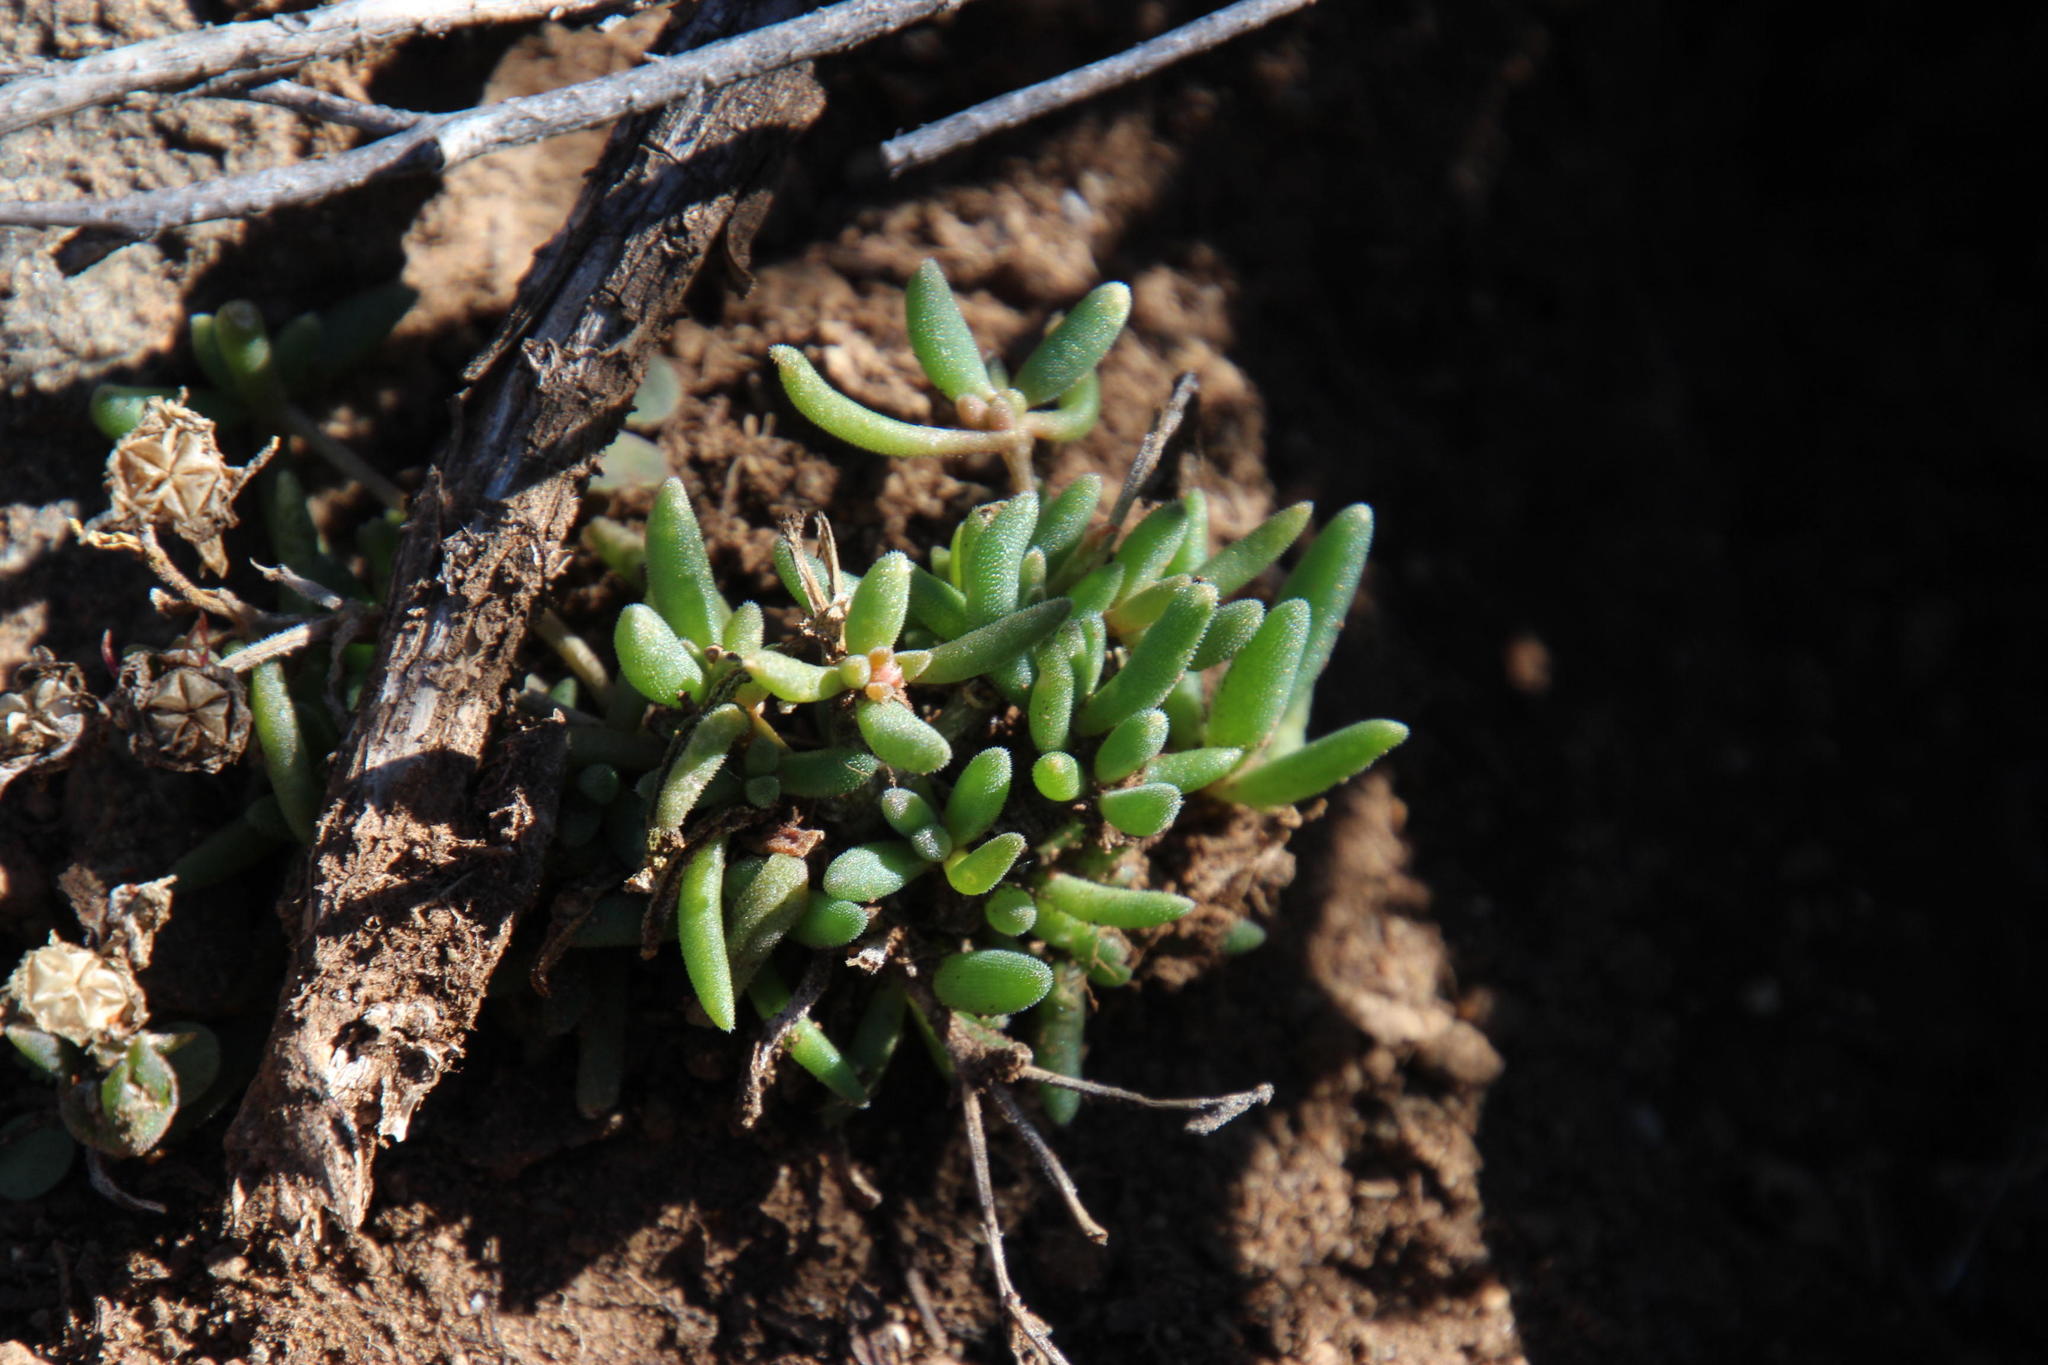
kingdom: Plantae
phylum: Tracheophyta
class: Magnoliopsida
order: Caryophyllales
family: Aizoaceae
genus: Delosperma
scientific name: Delosperma lootsbergense
